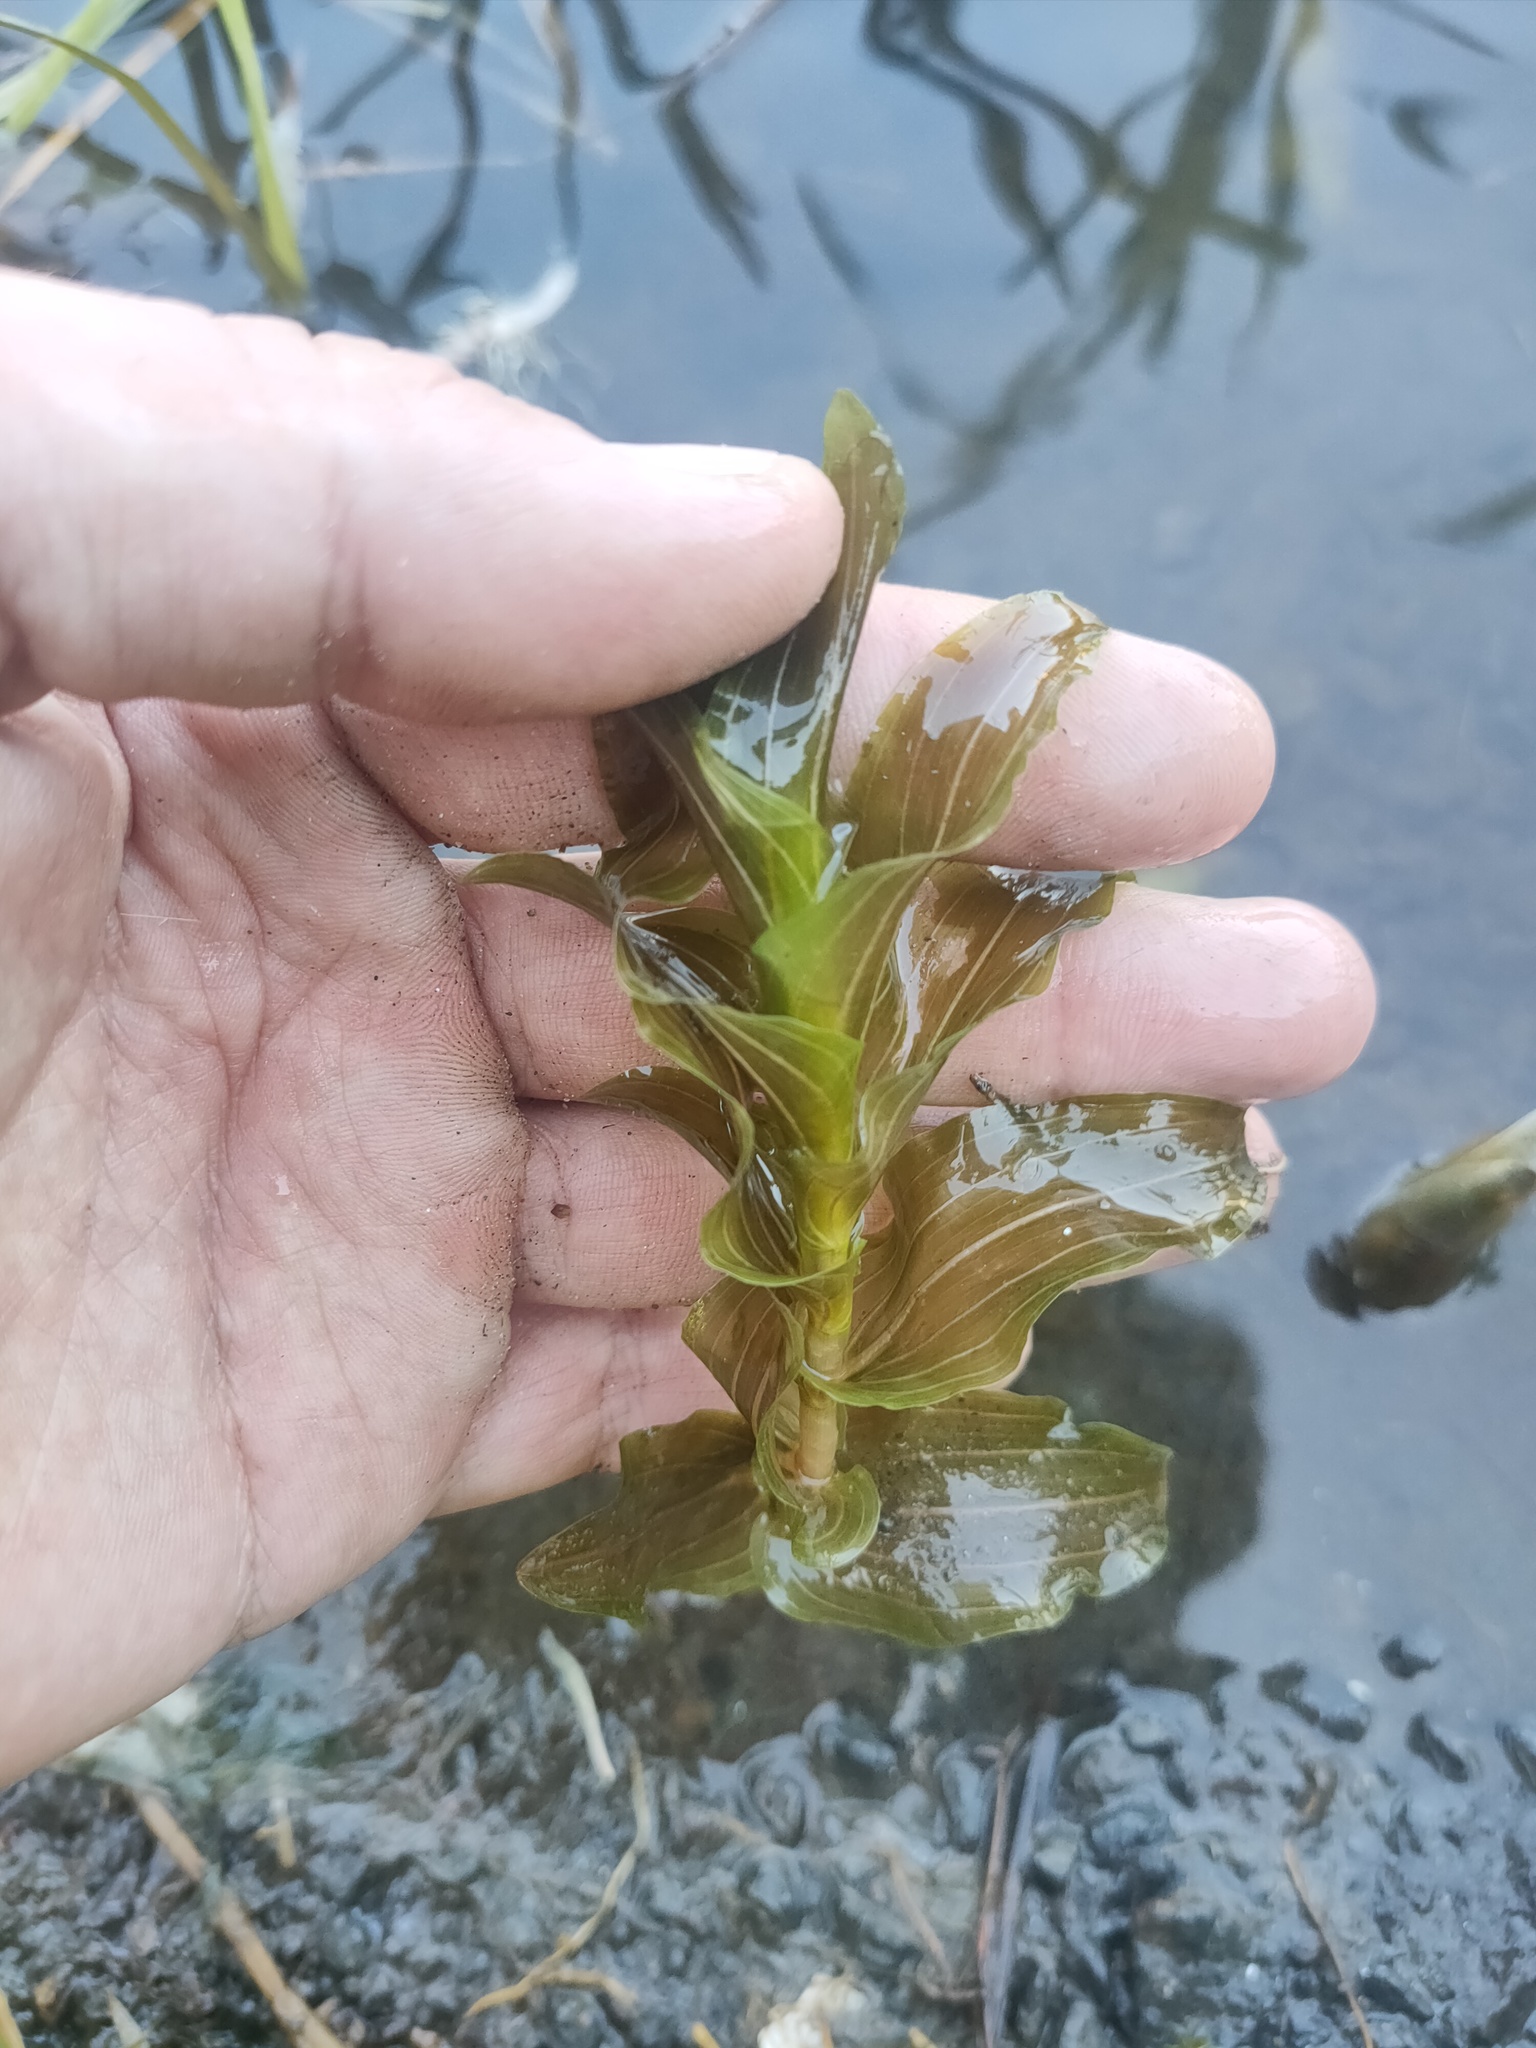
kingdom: Plantae
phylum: Tracheophyta
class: Liliopsida
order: Alismatales
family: Potamogetonaceae
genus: Potamogeton
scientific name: Potamogeton perfoliatus
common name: Perfoliate pondweed
